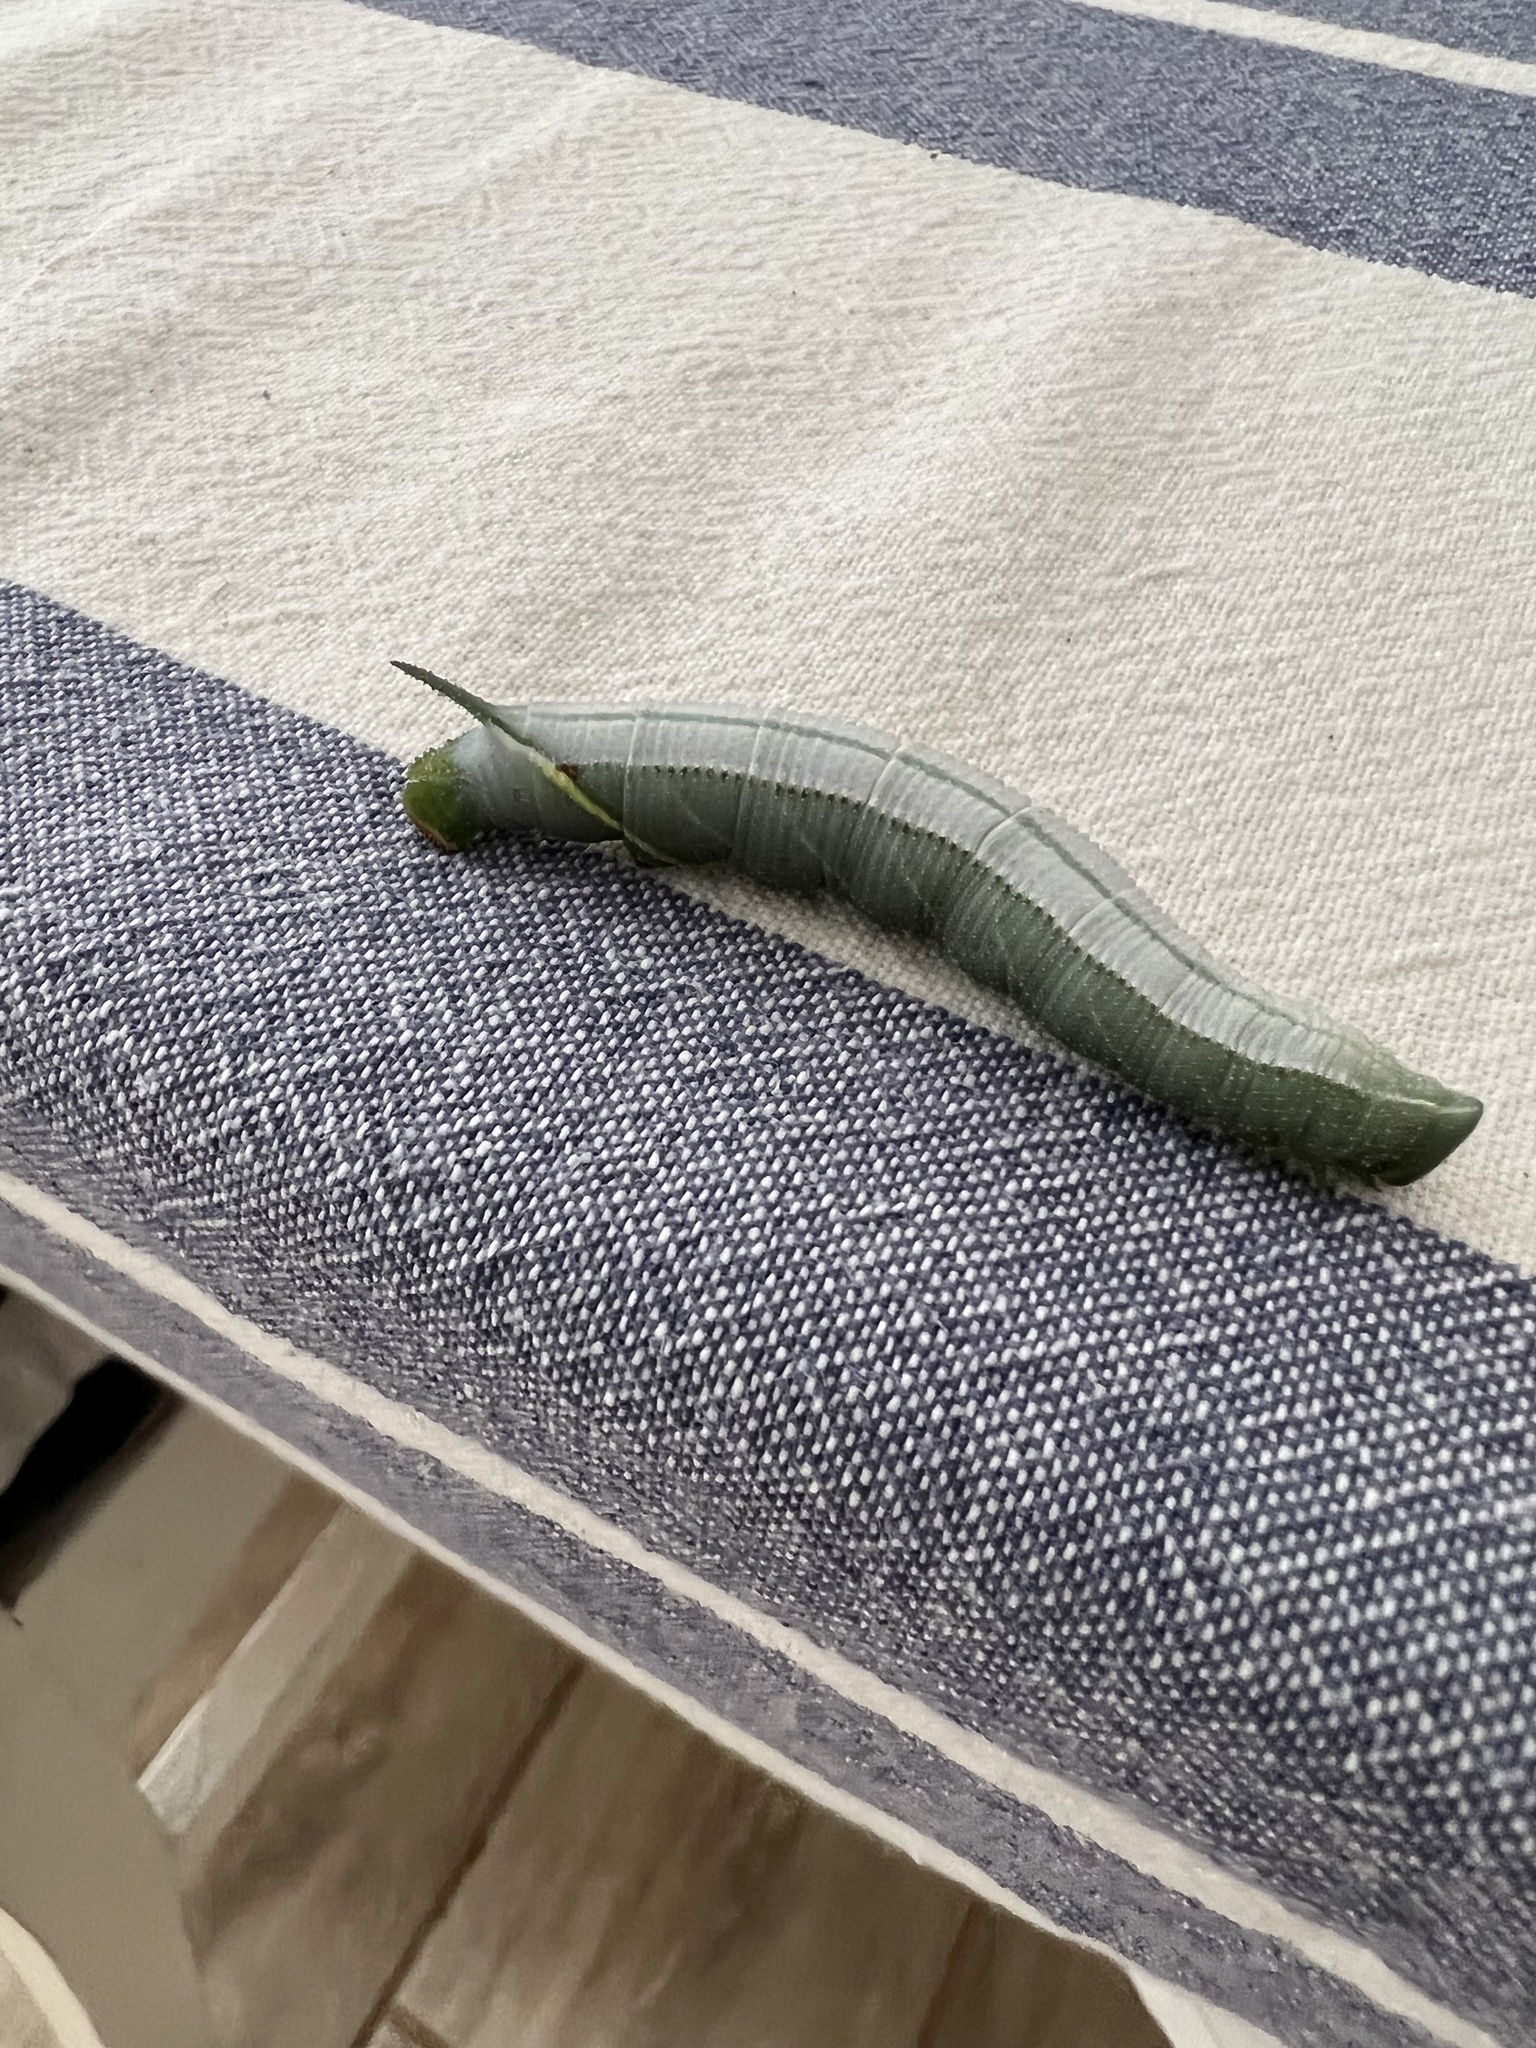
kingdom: Animalia
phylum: Arthropoda
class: Insecta
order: Lepidoptera
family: Sphingidae
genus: Pseudoclanis
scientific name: Pseudoclanis postica
